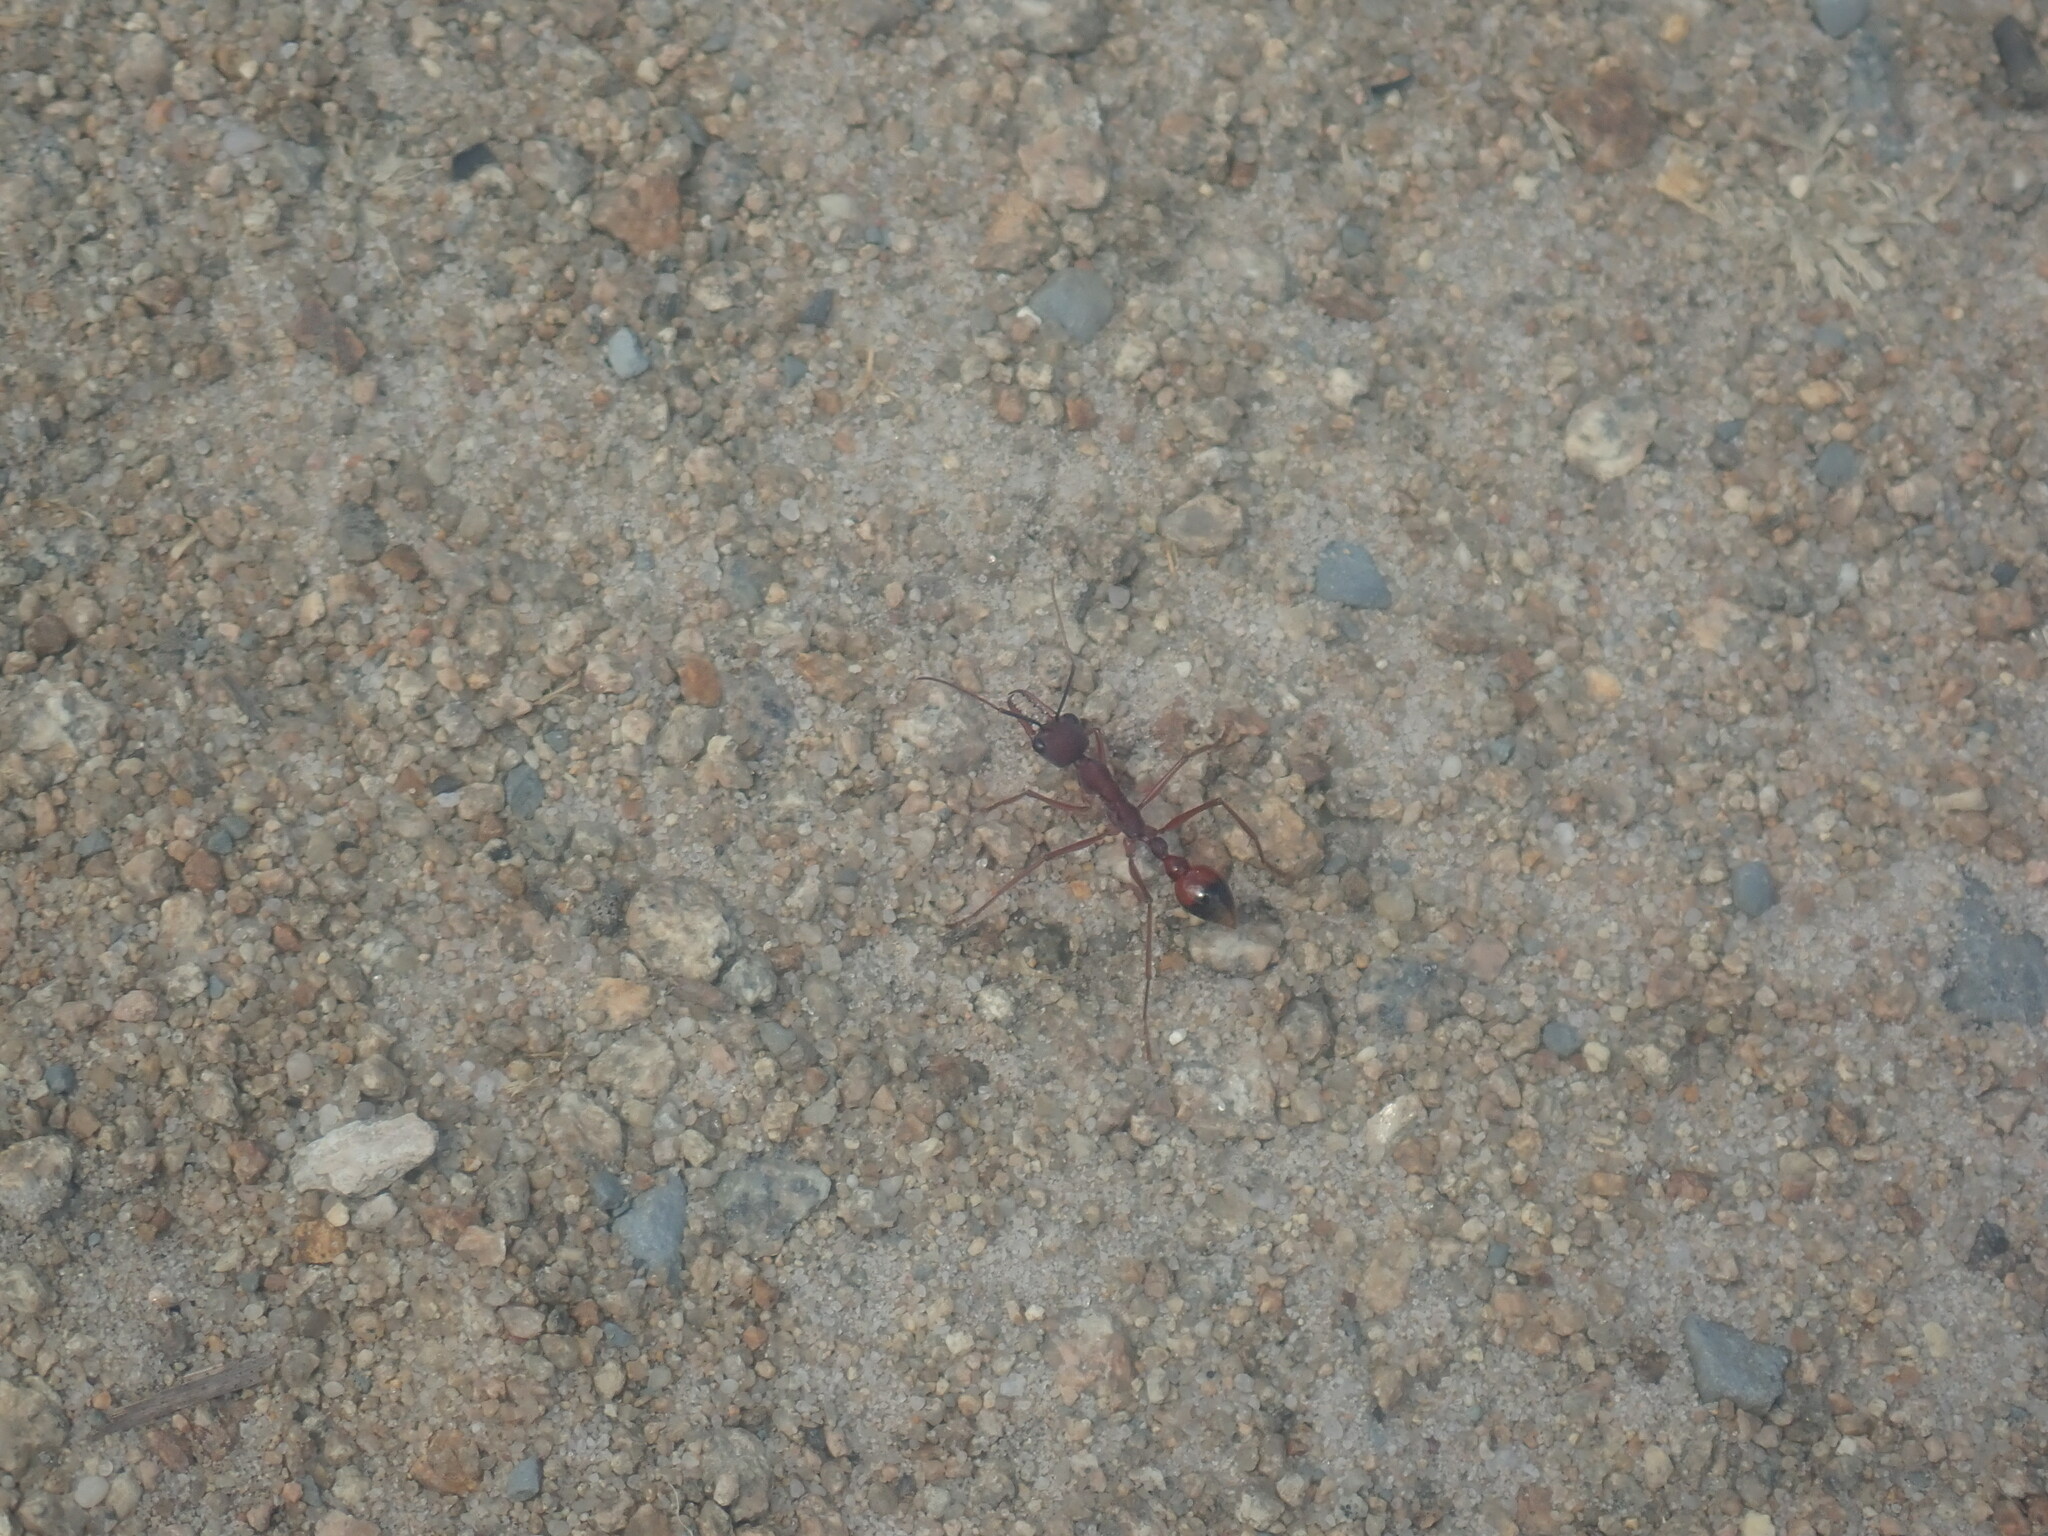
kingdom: Animalia
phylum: Arthropoda
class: Insecta
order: Hymenoptera
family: Formicidae
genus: Myrmecia
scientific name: Myrmecia nigriscapa
